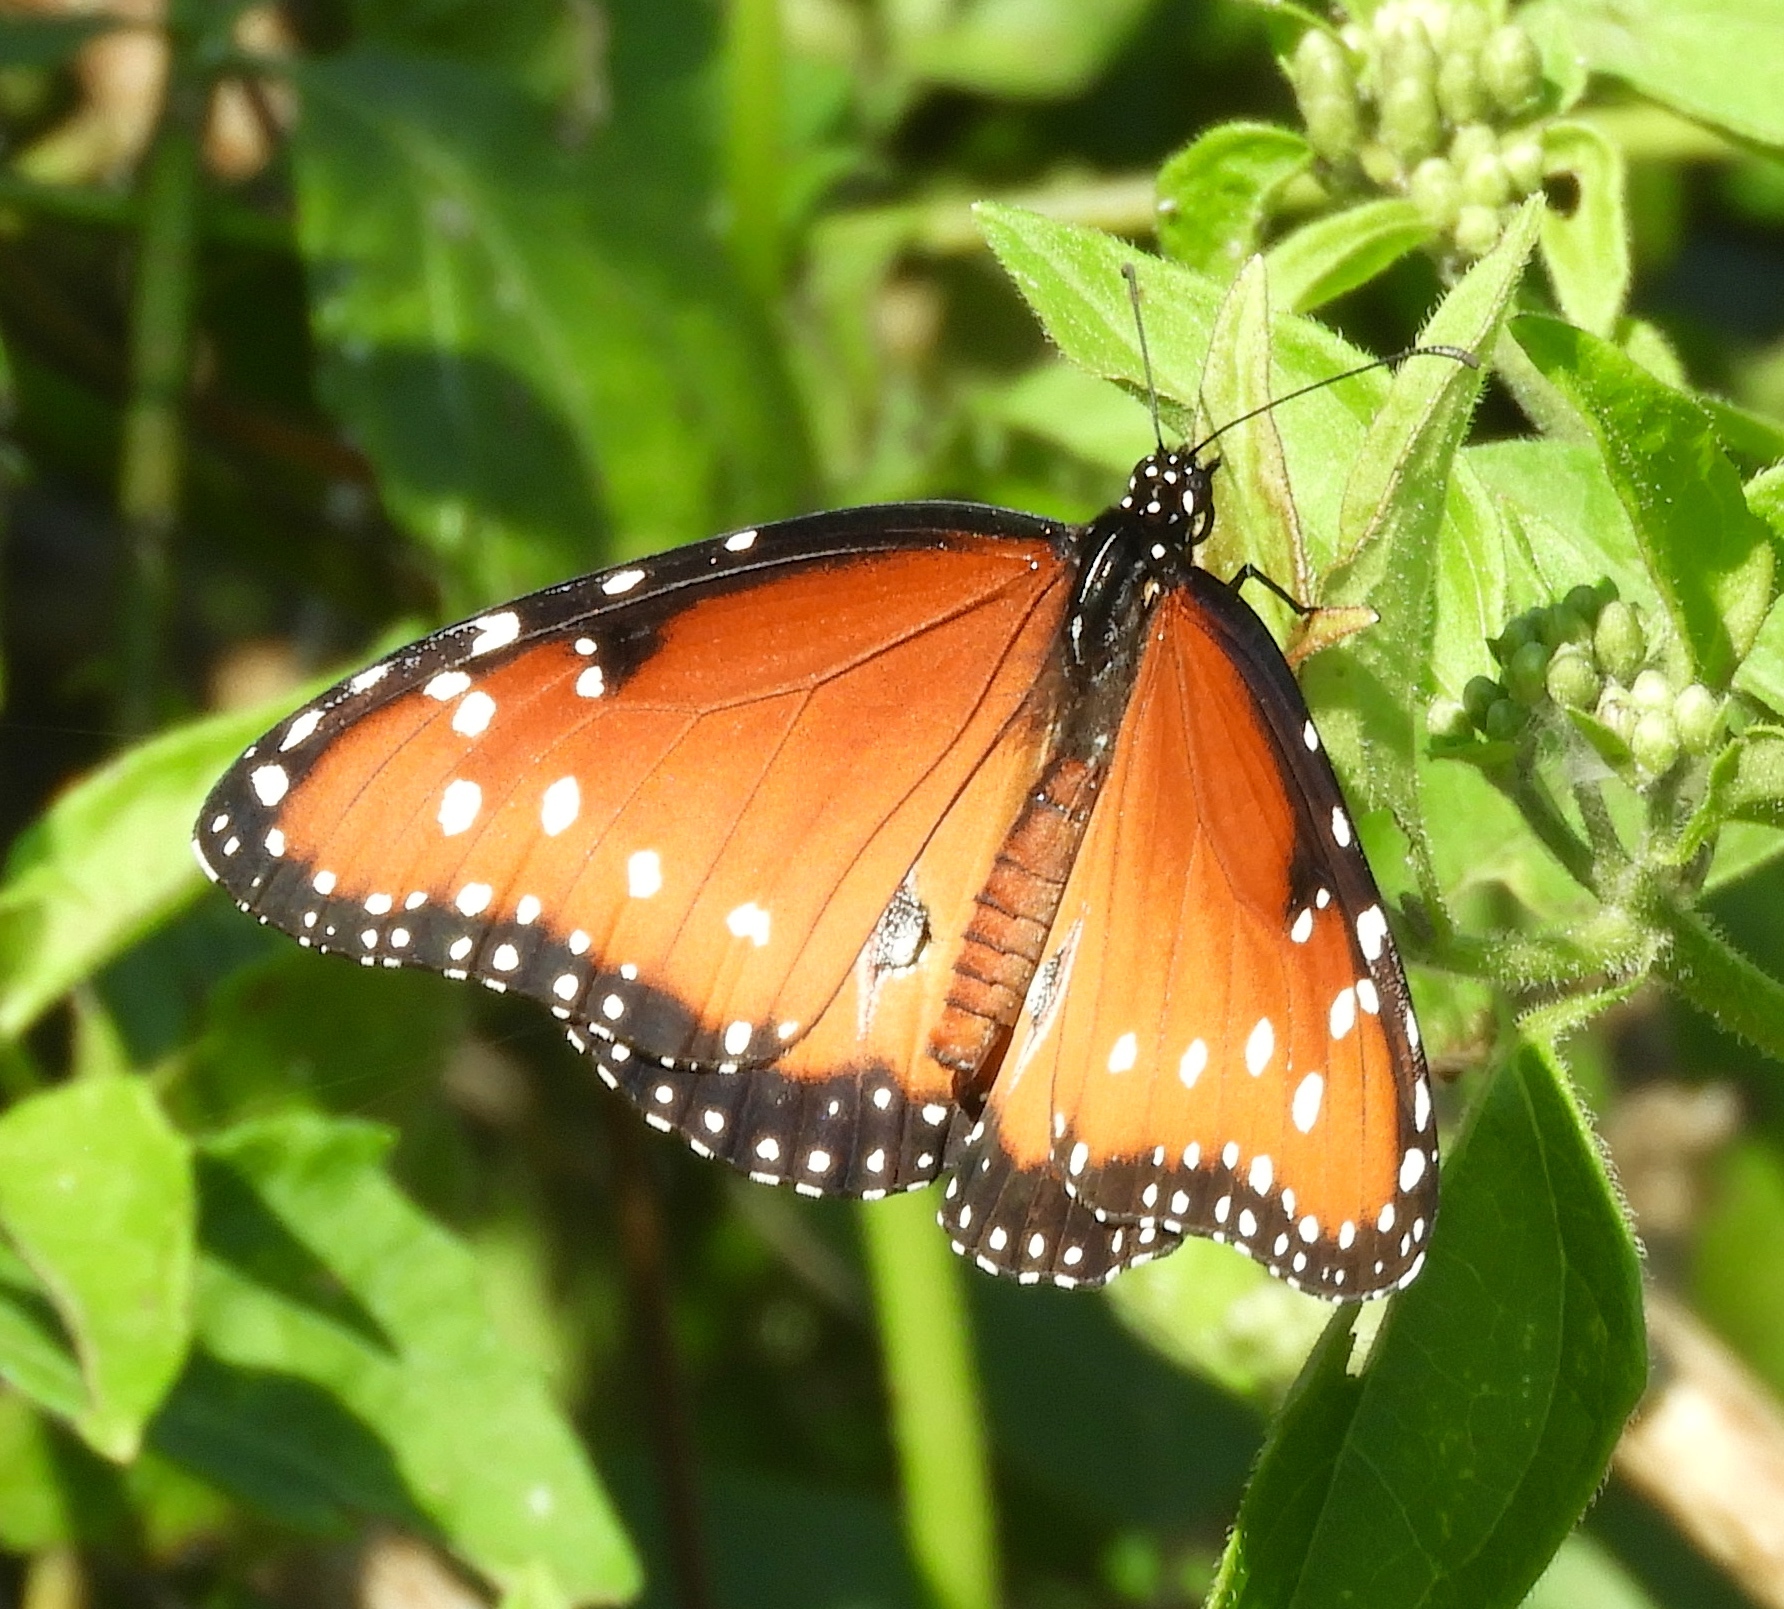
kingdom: Animalia
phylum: Arthropoda
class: Insecta
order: Lepidoptera
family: Nymphalidae
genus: Danaus
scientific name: Danaus gilippus
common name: Queen
